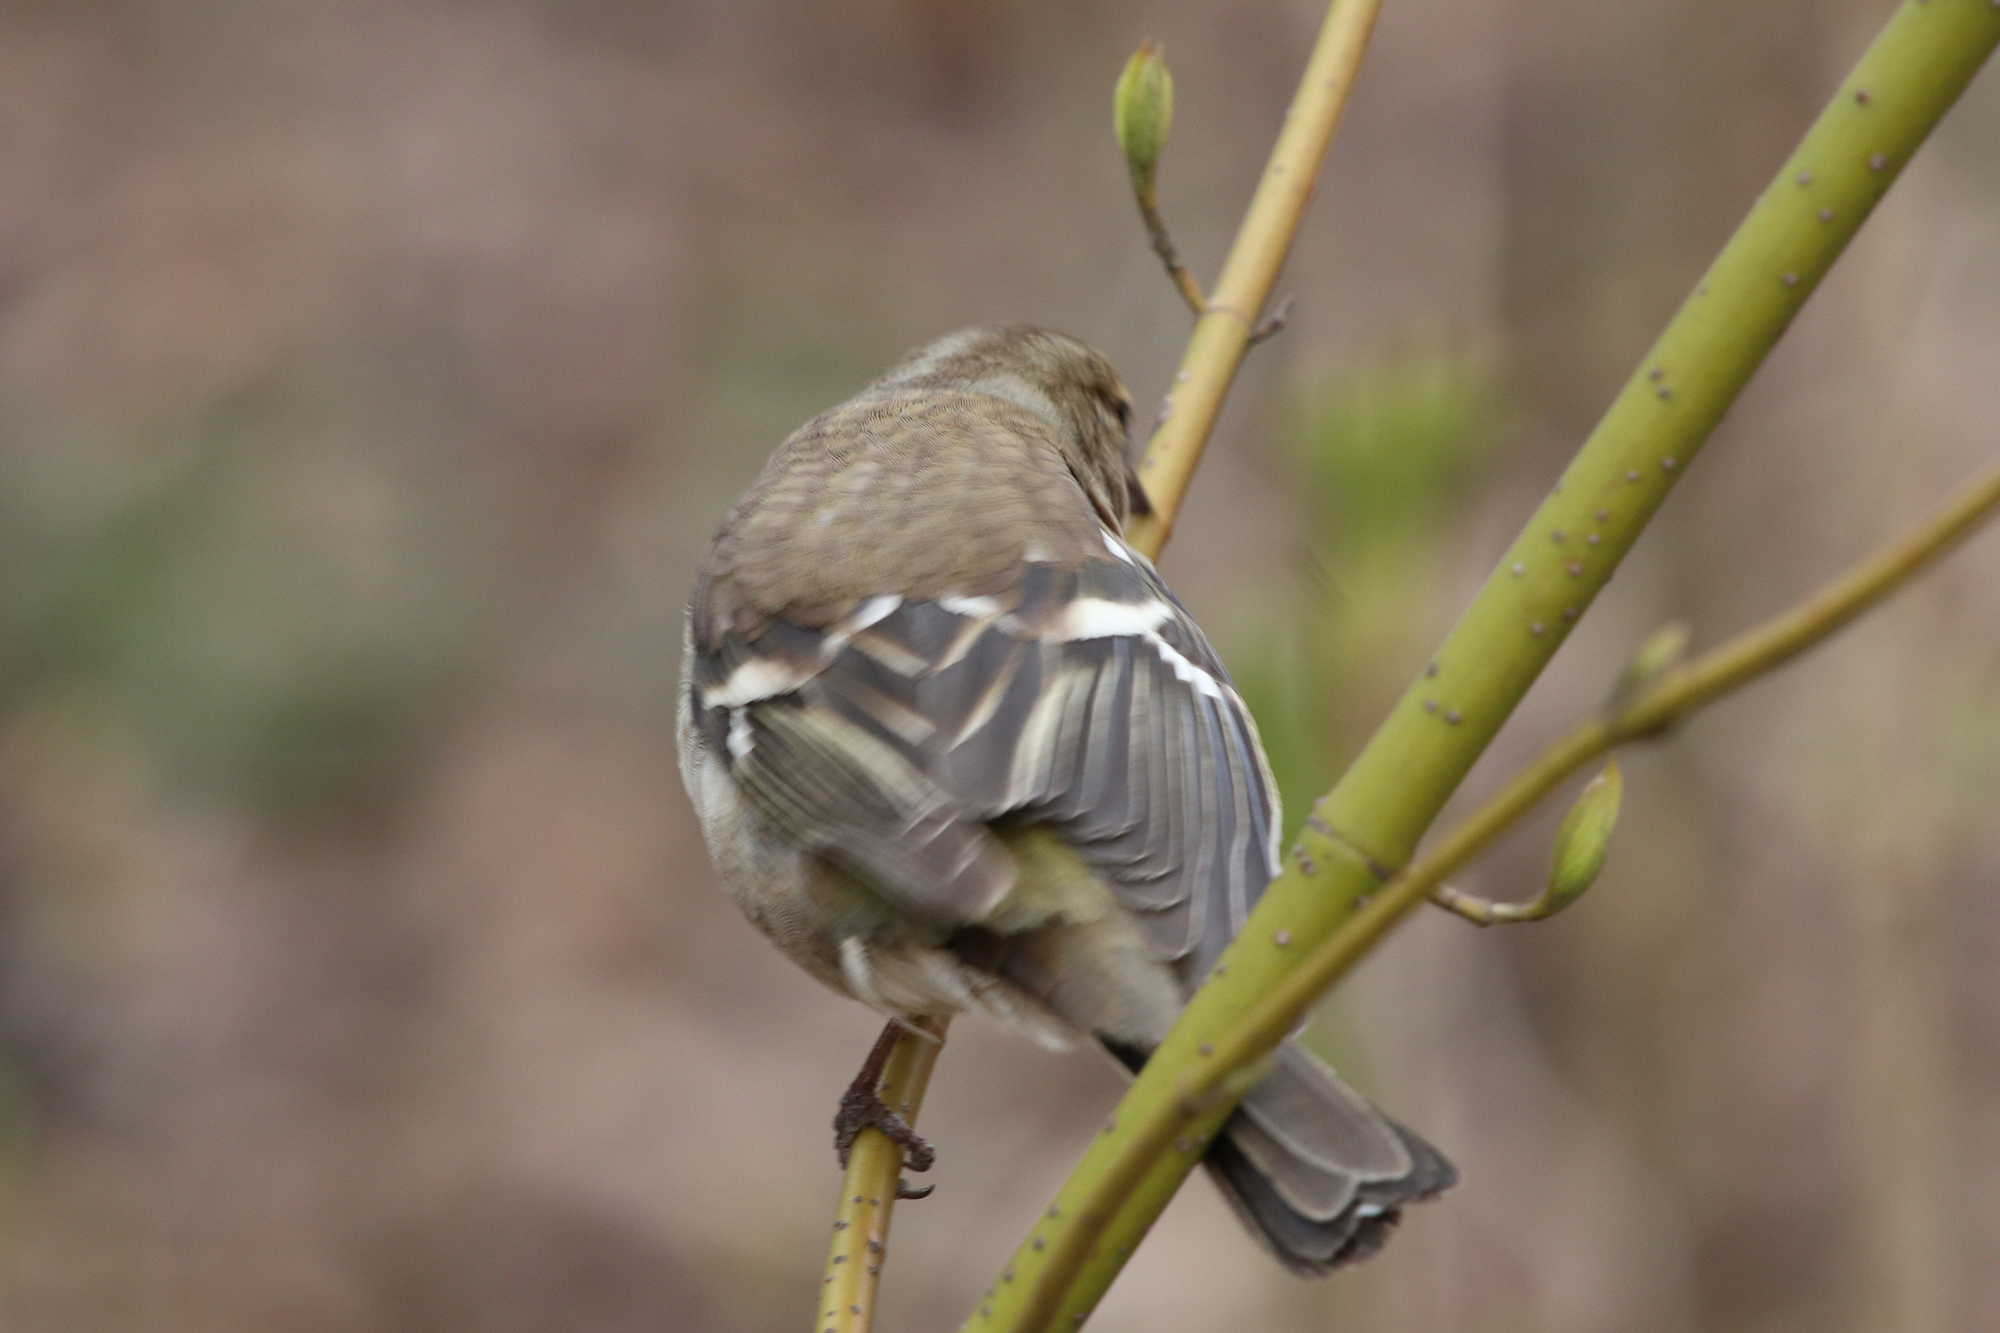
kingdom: Animalia
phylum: Chordata
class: Aves
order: Passeriformes
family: Fringillidae
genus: Fringilla
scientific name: Fringilla coelebs
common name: Common chaffinch
